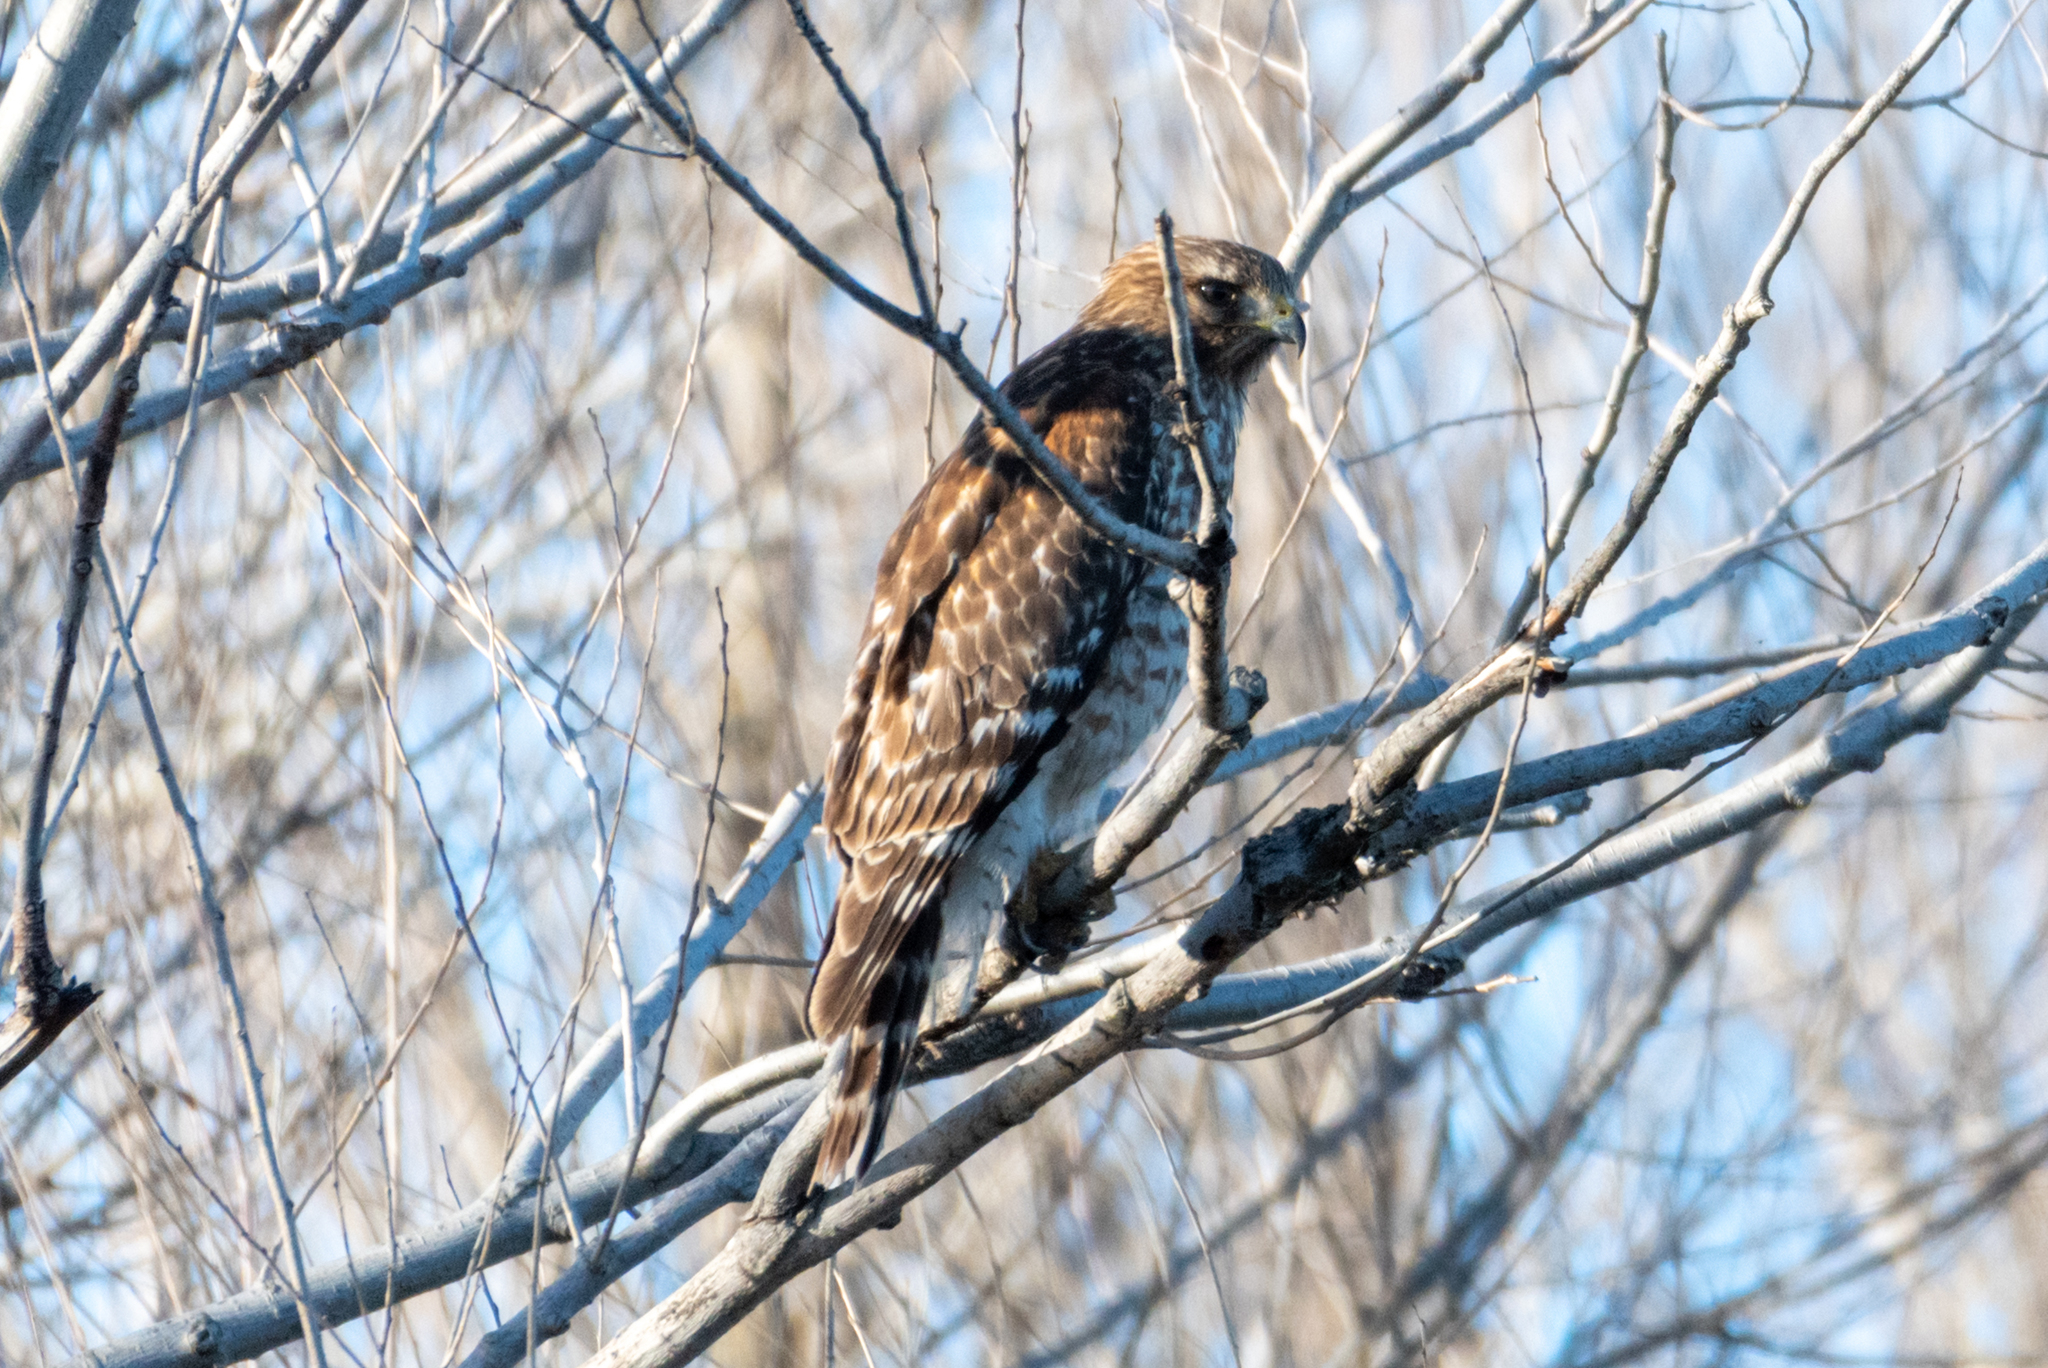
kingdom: Animalia
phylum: Chordata
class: Aves
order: Accipitriformes
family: Accipitridae
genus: Buteo
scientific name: Buteo lineatus
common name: Red-shouldered hawk
